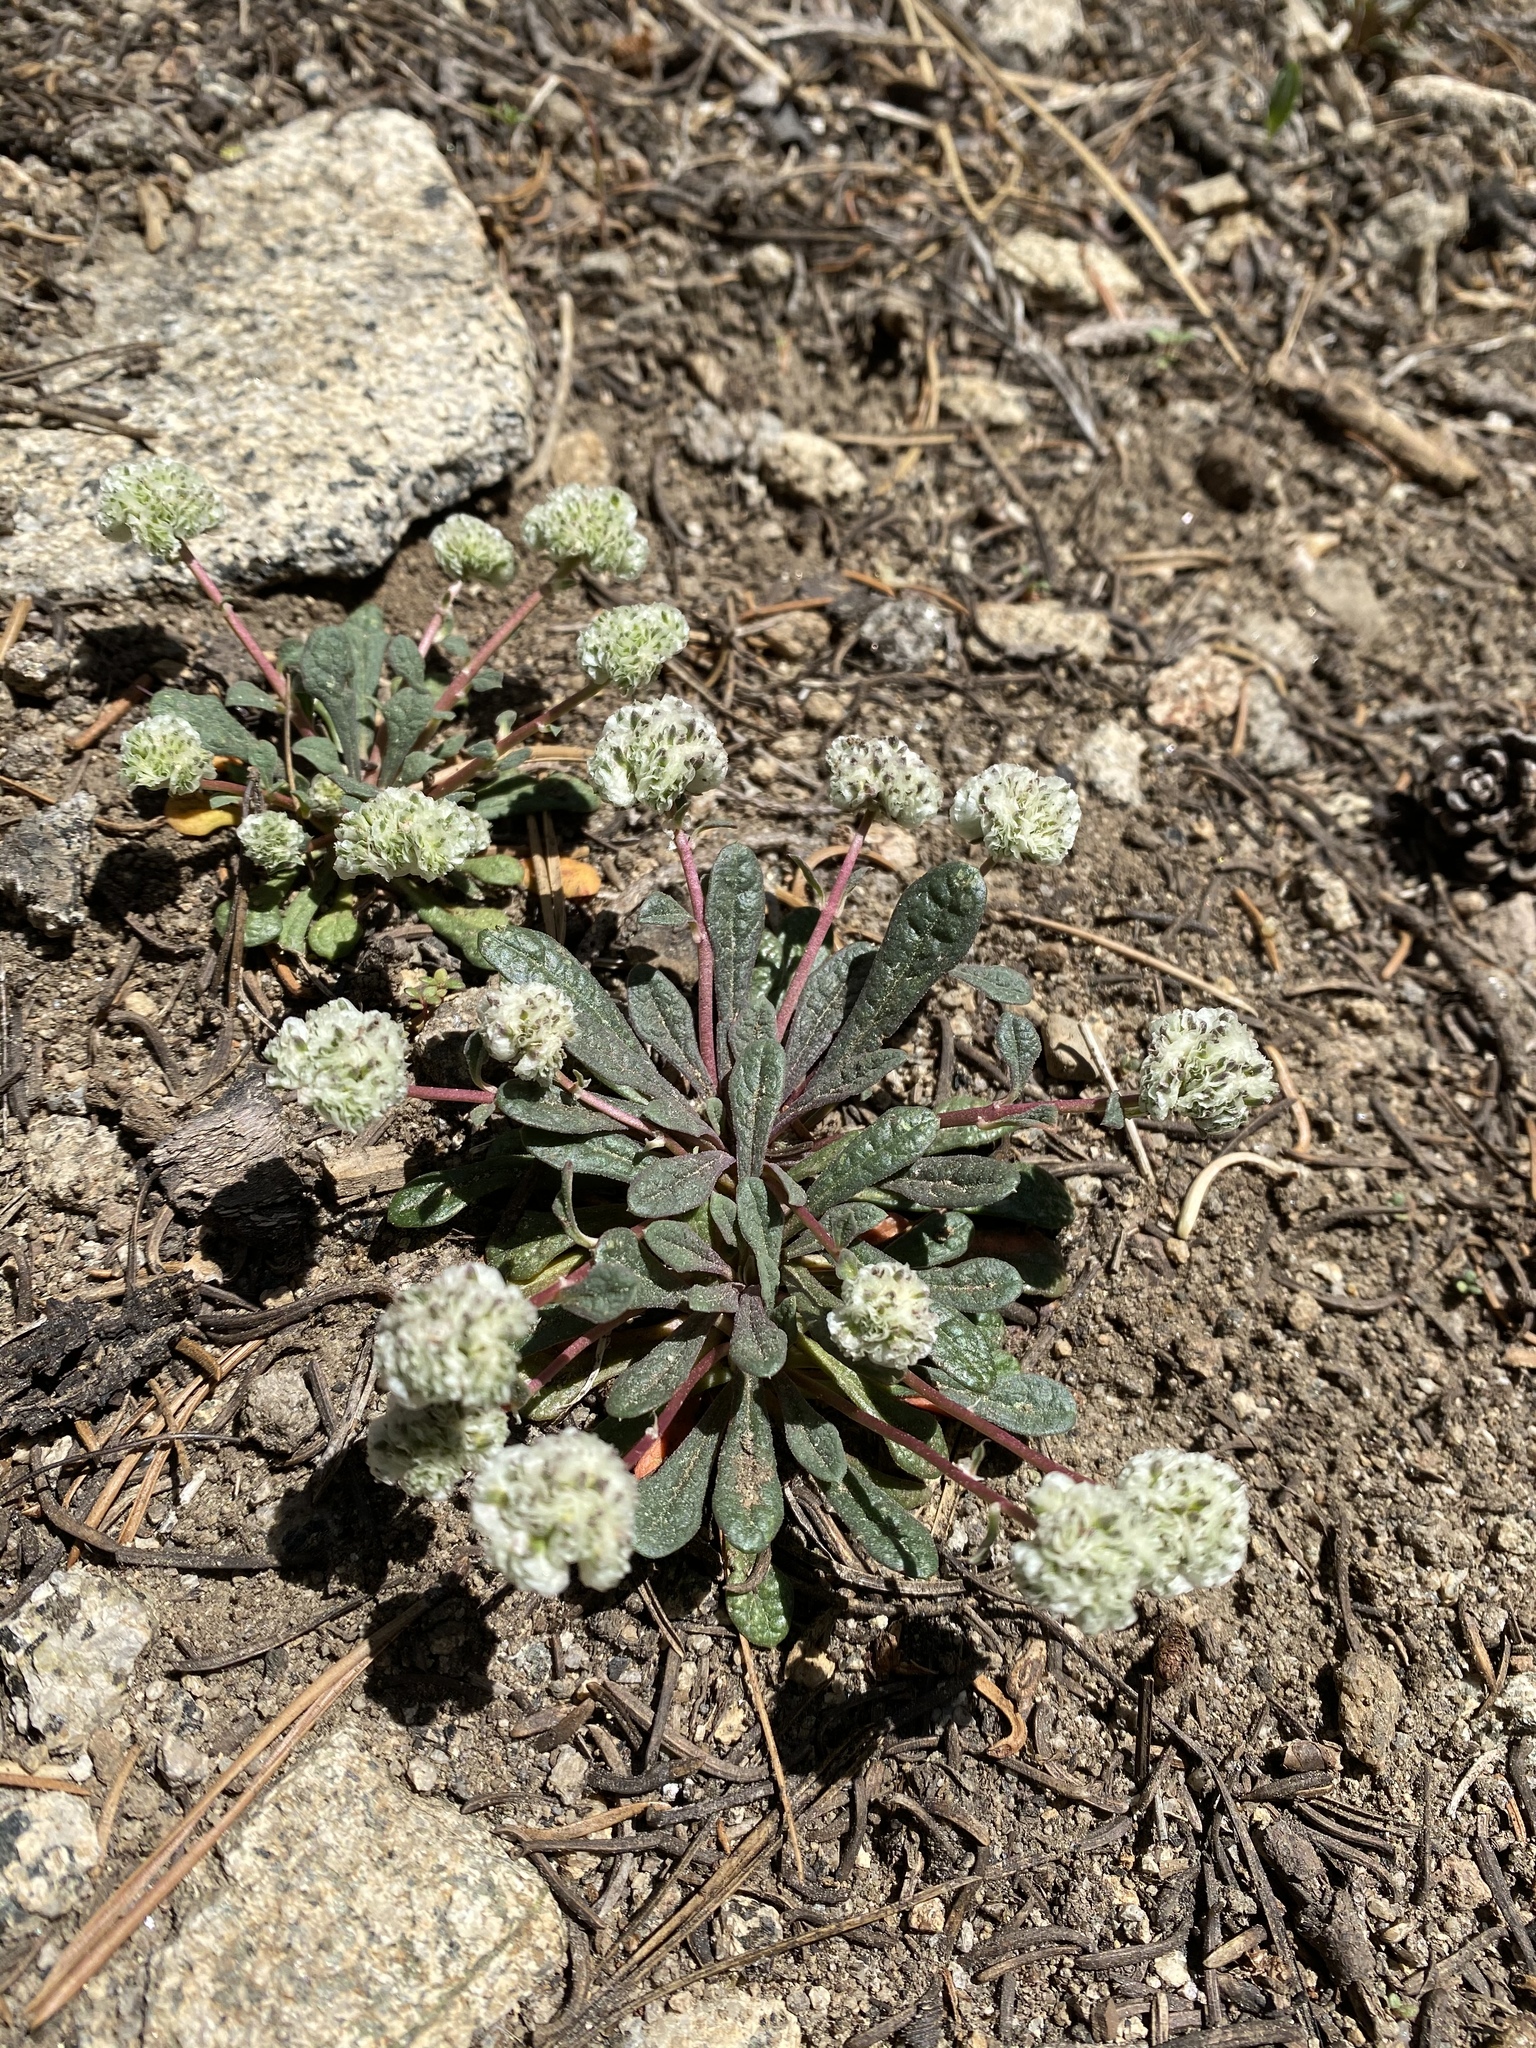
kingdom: Plantae
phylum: Tracheophyta
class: Magnoliopsida
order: Caryophyllales
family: Montiaceae
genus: Calyptridium
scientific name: Calyptridium monospermum
